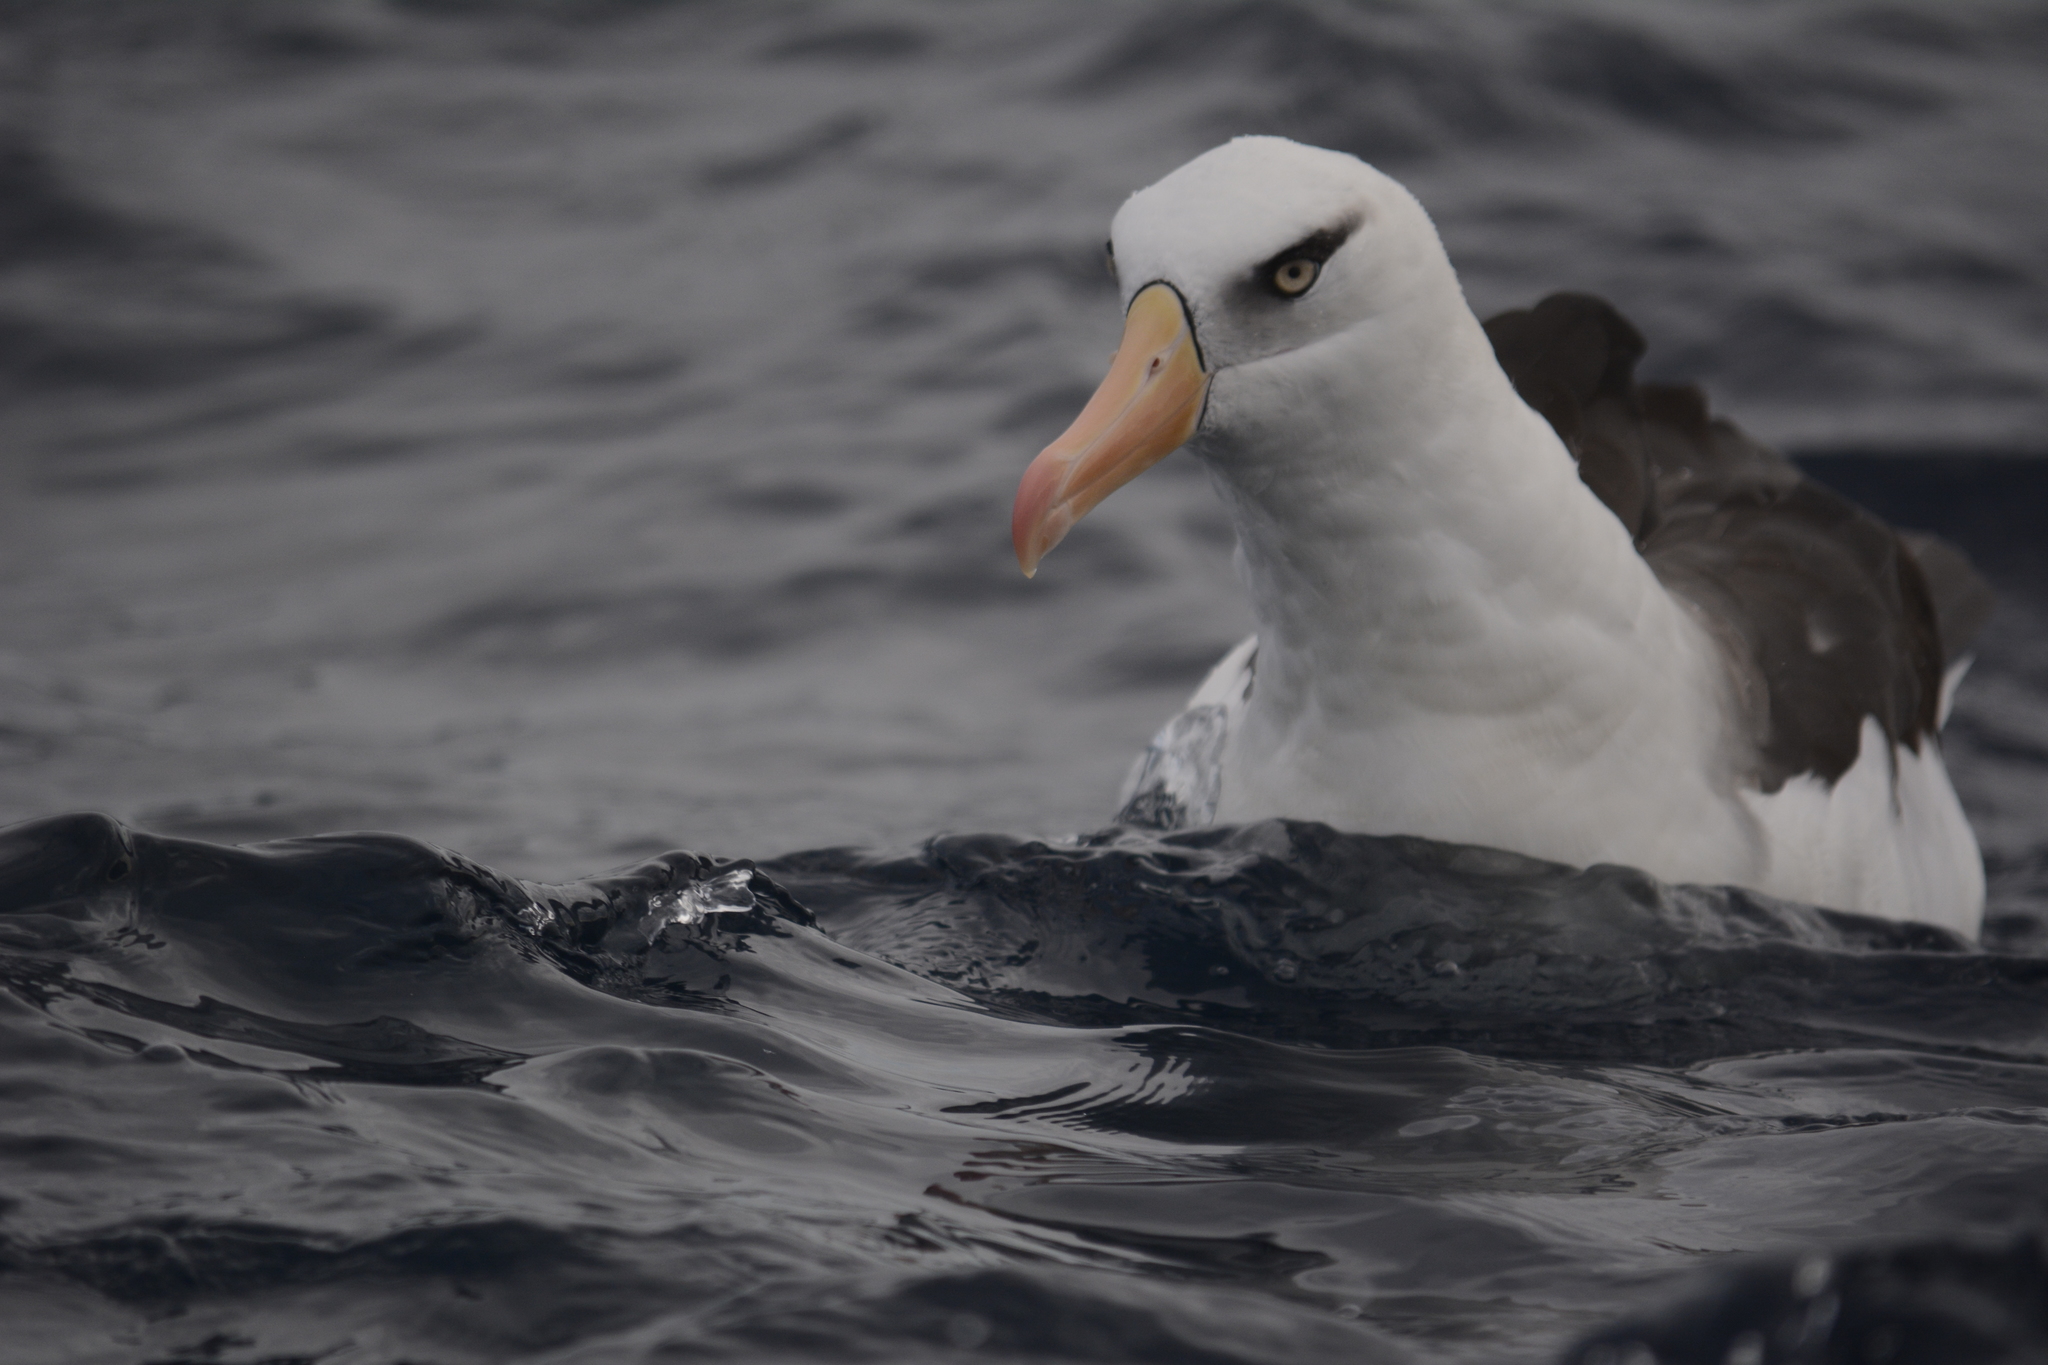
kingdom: Animalia
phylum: Chordata
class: Aves
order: Procellariiformes
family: Diomedeidae
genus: Thalassarche
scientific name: Thalassarche impavida
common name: Campbell albatross
